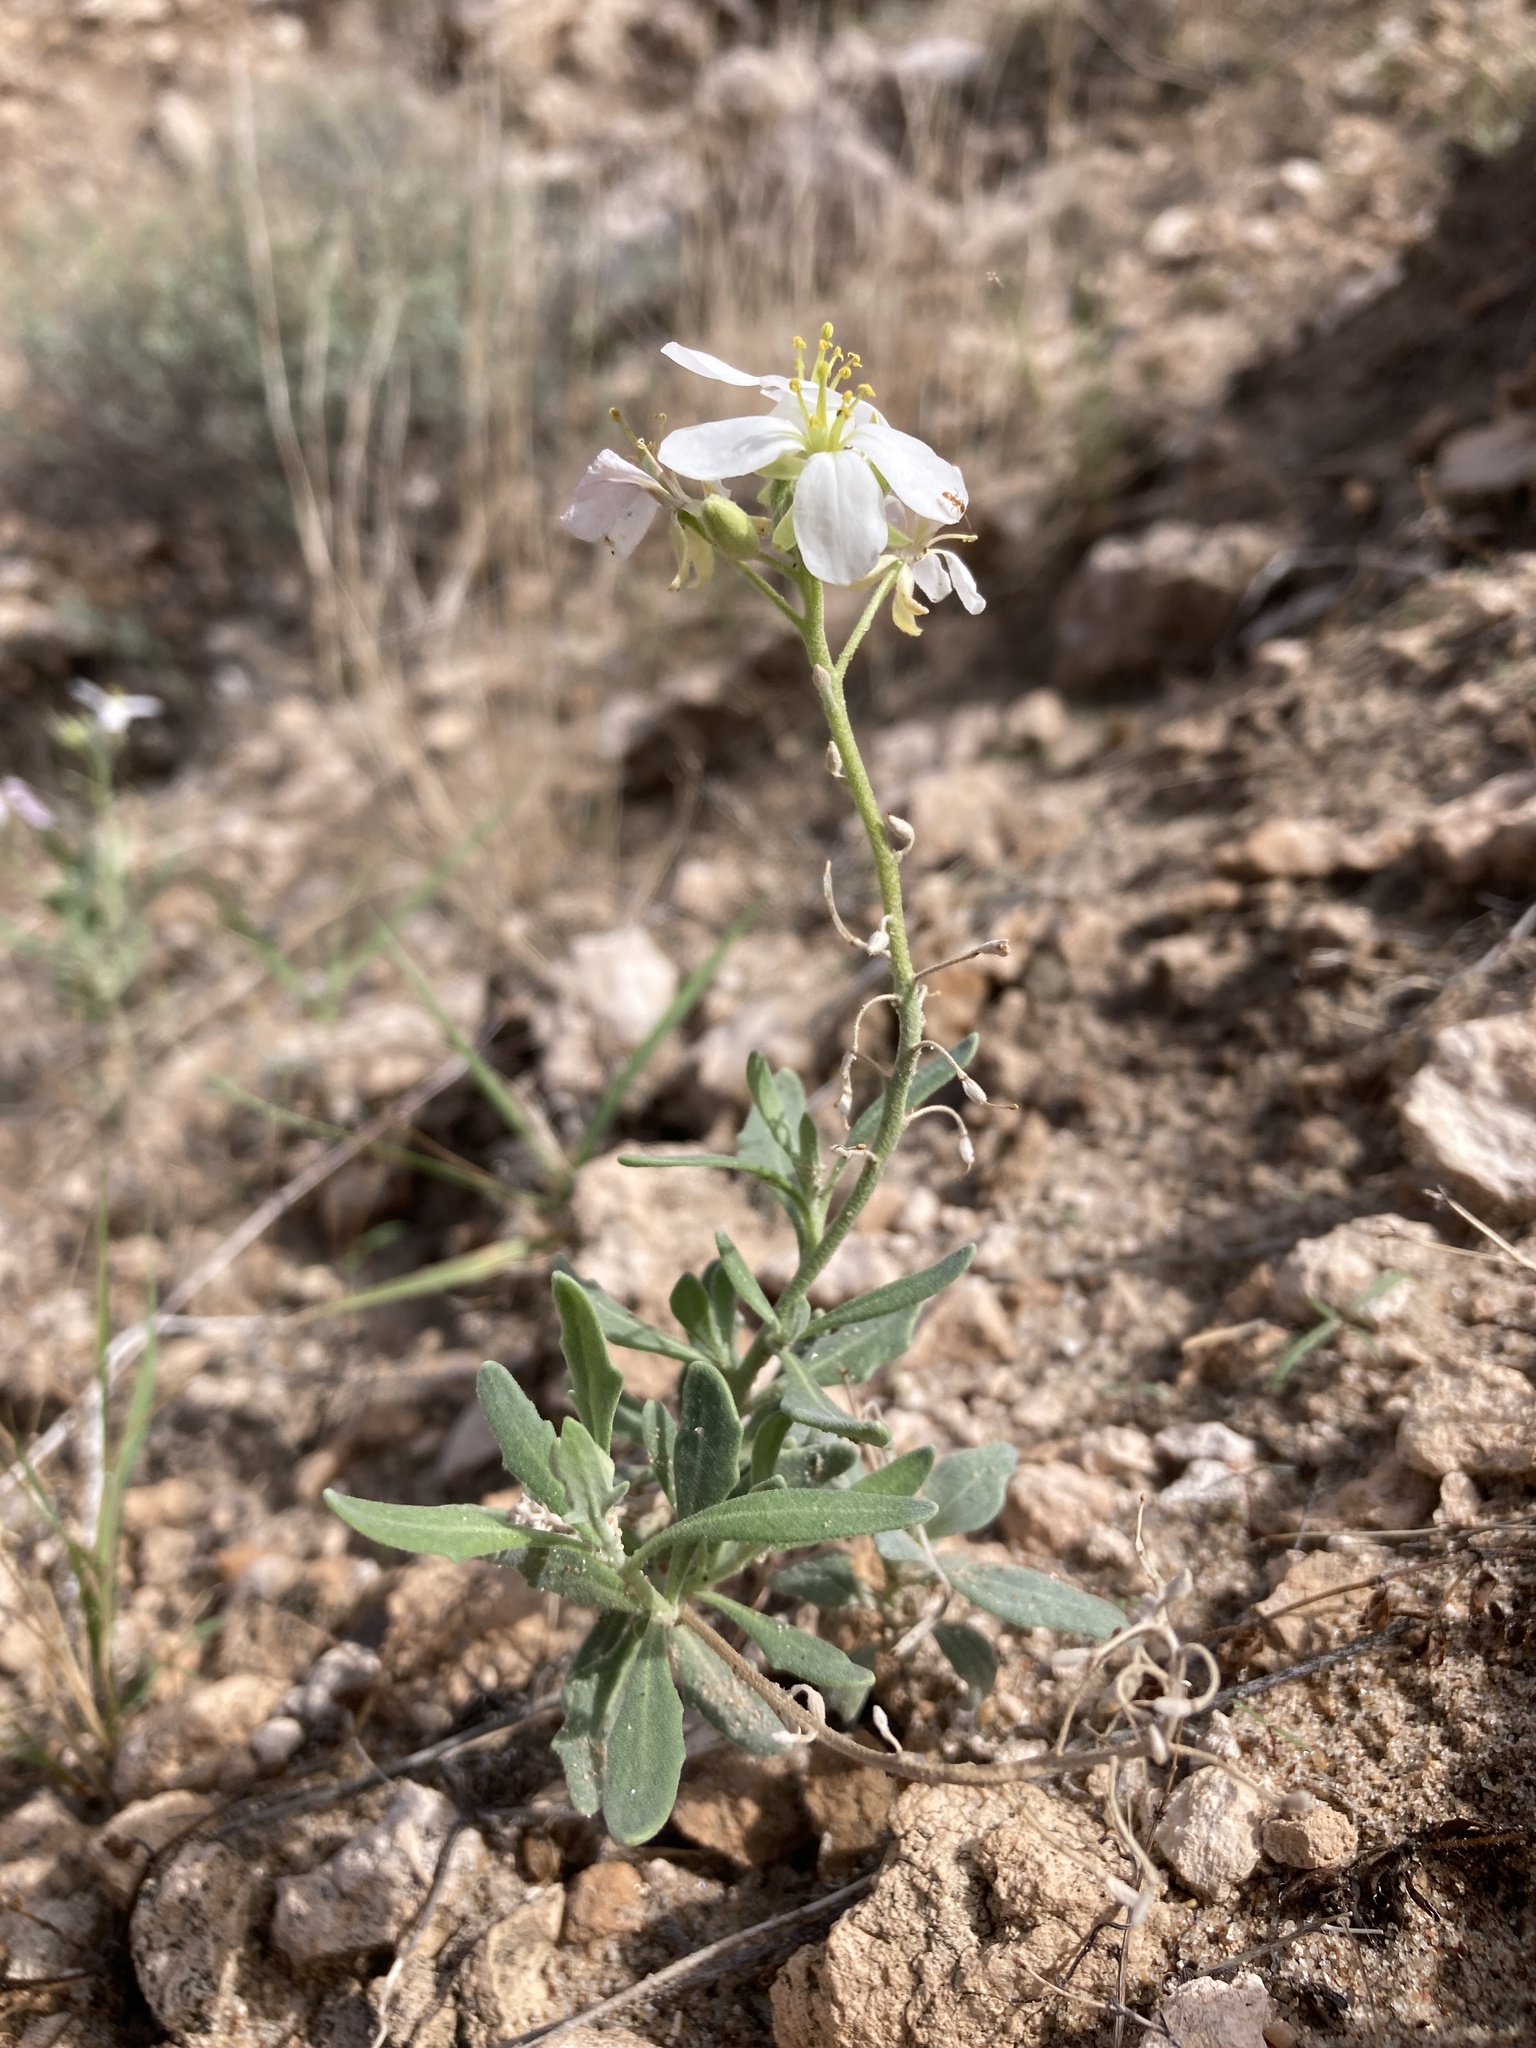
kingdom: Plantae
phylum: Tracheophyta
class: Magnoliopsida
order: Brassicales
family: Brassicaceae
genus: Nerisyrenia
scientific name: Nerisyrenia camporum
